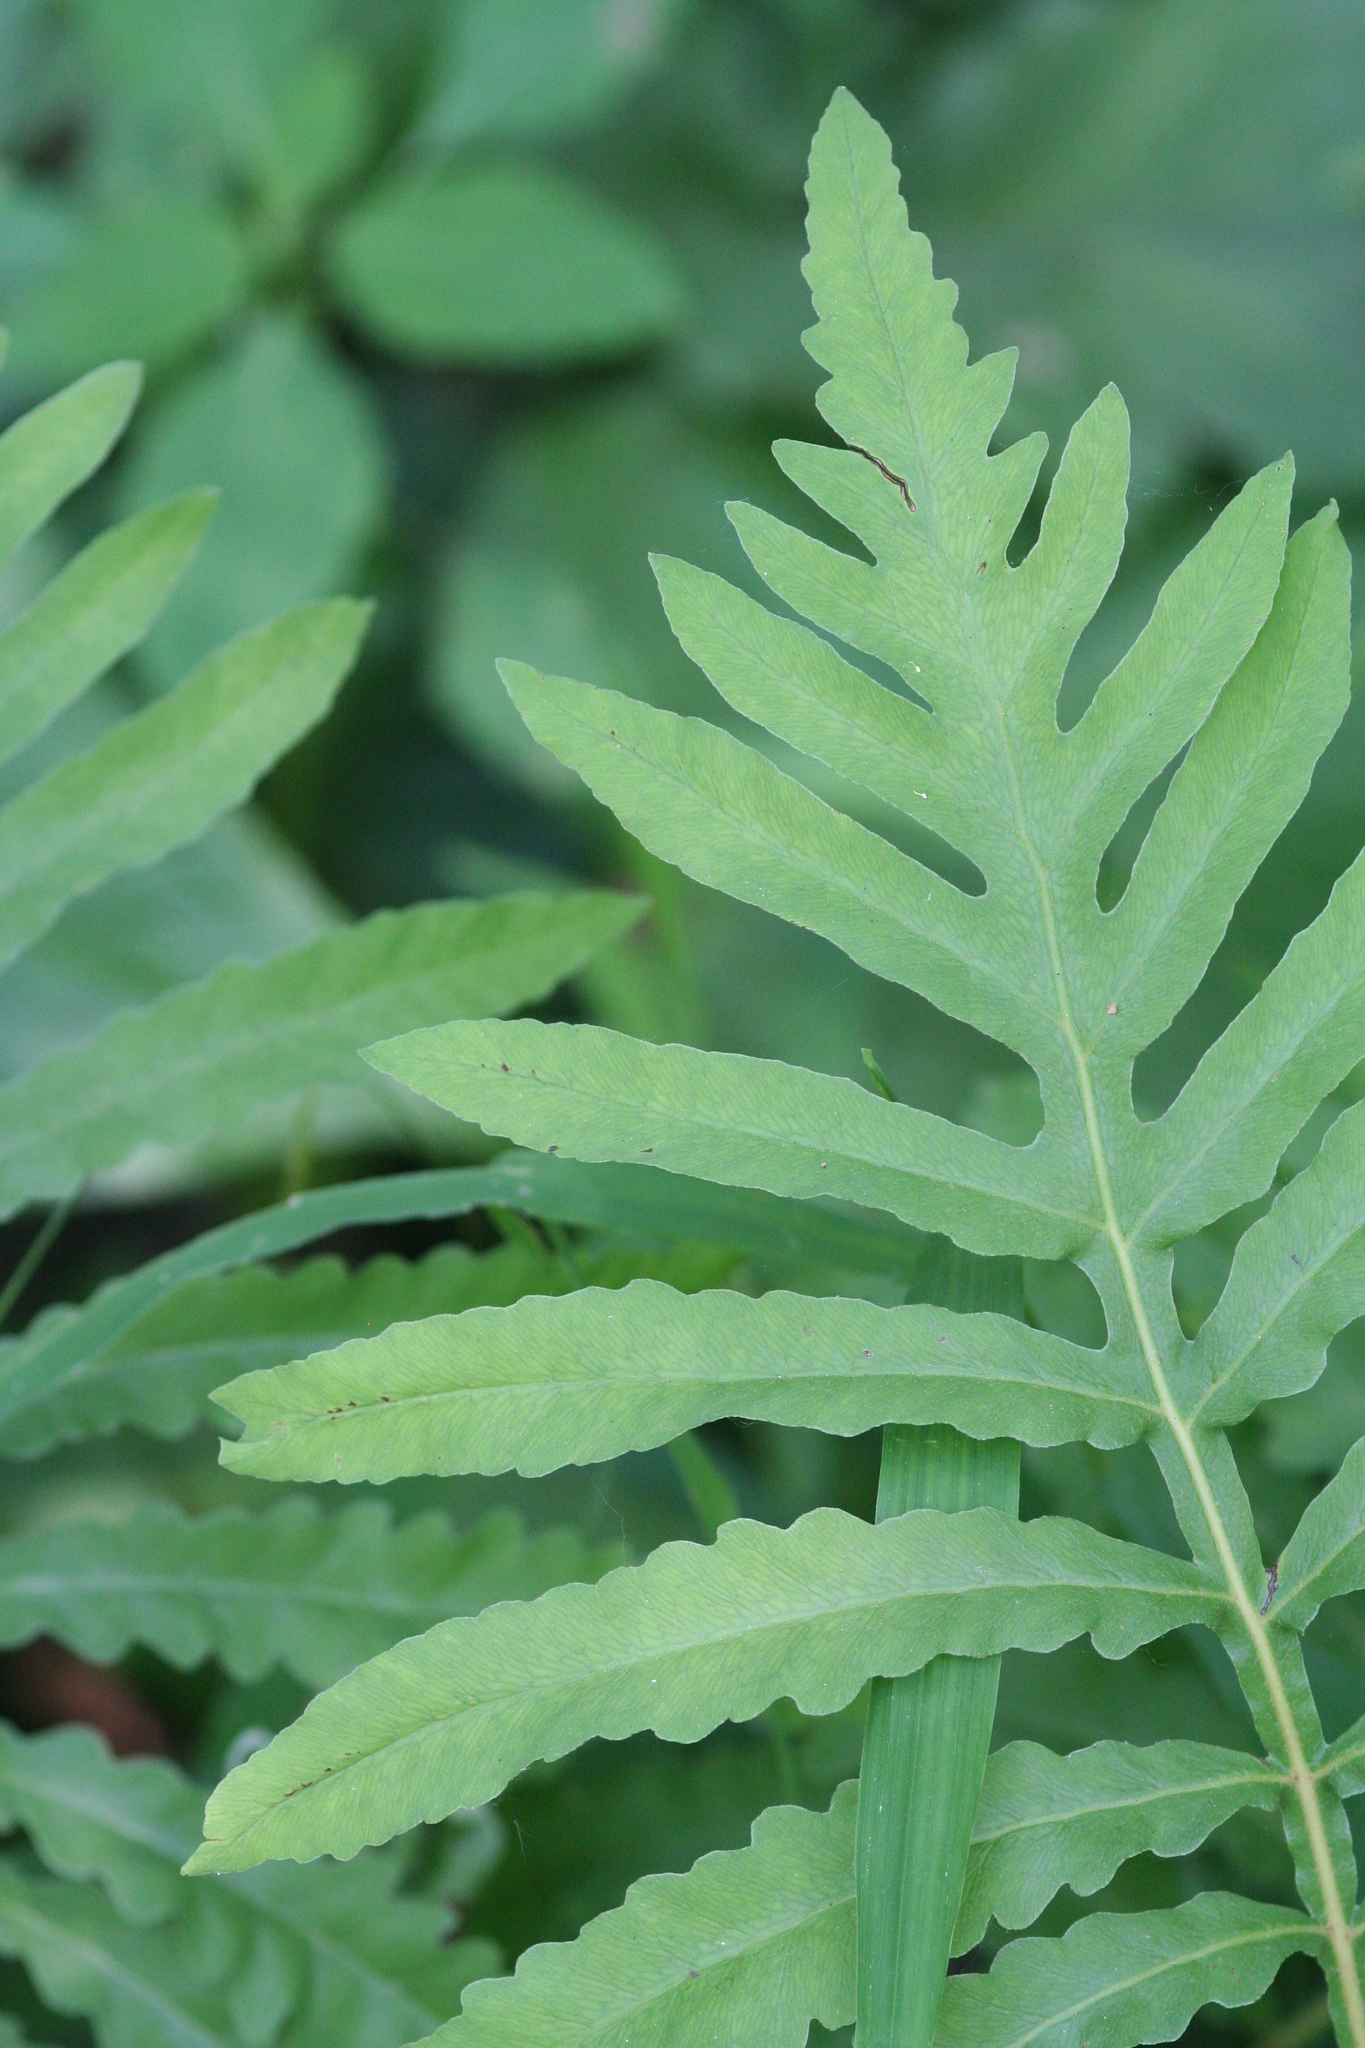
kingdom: Plantae
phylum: Tracheophyta
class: Polypodiopsida
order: Polypodiales
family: Onocleaceae
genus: Onoclea
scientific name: Onoclea sensibilis
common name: Sensitive fern
